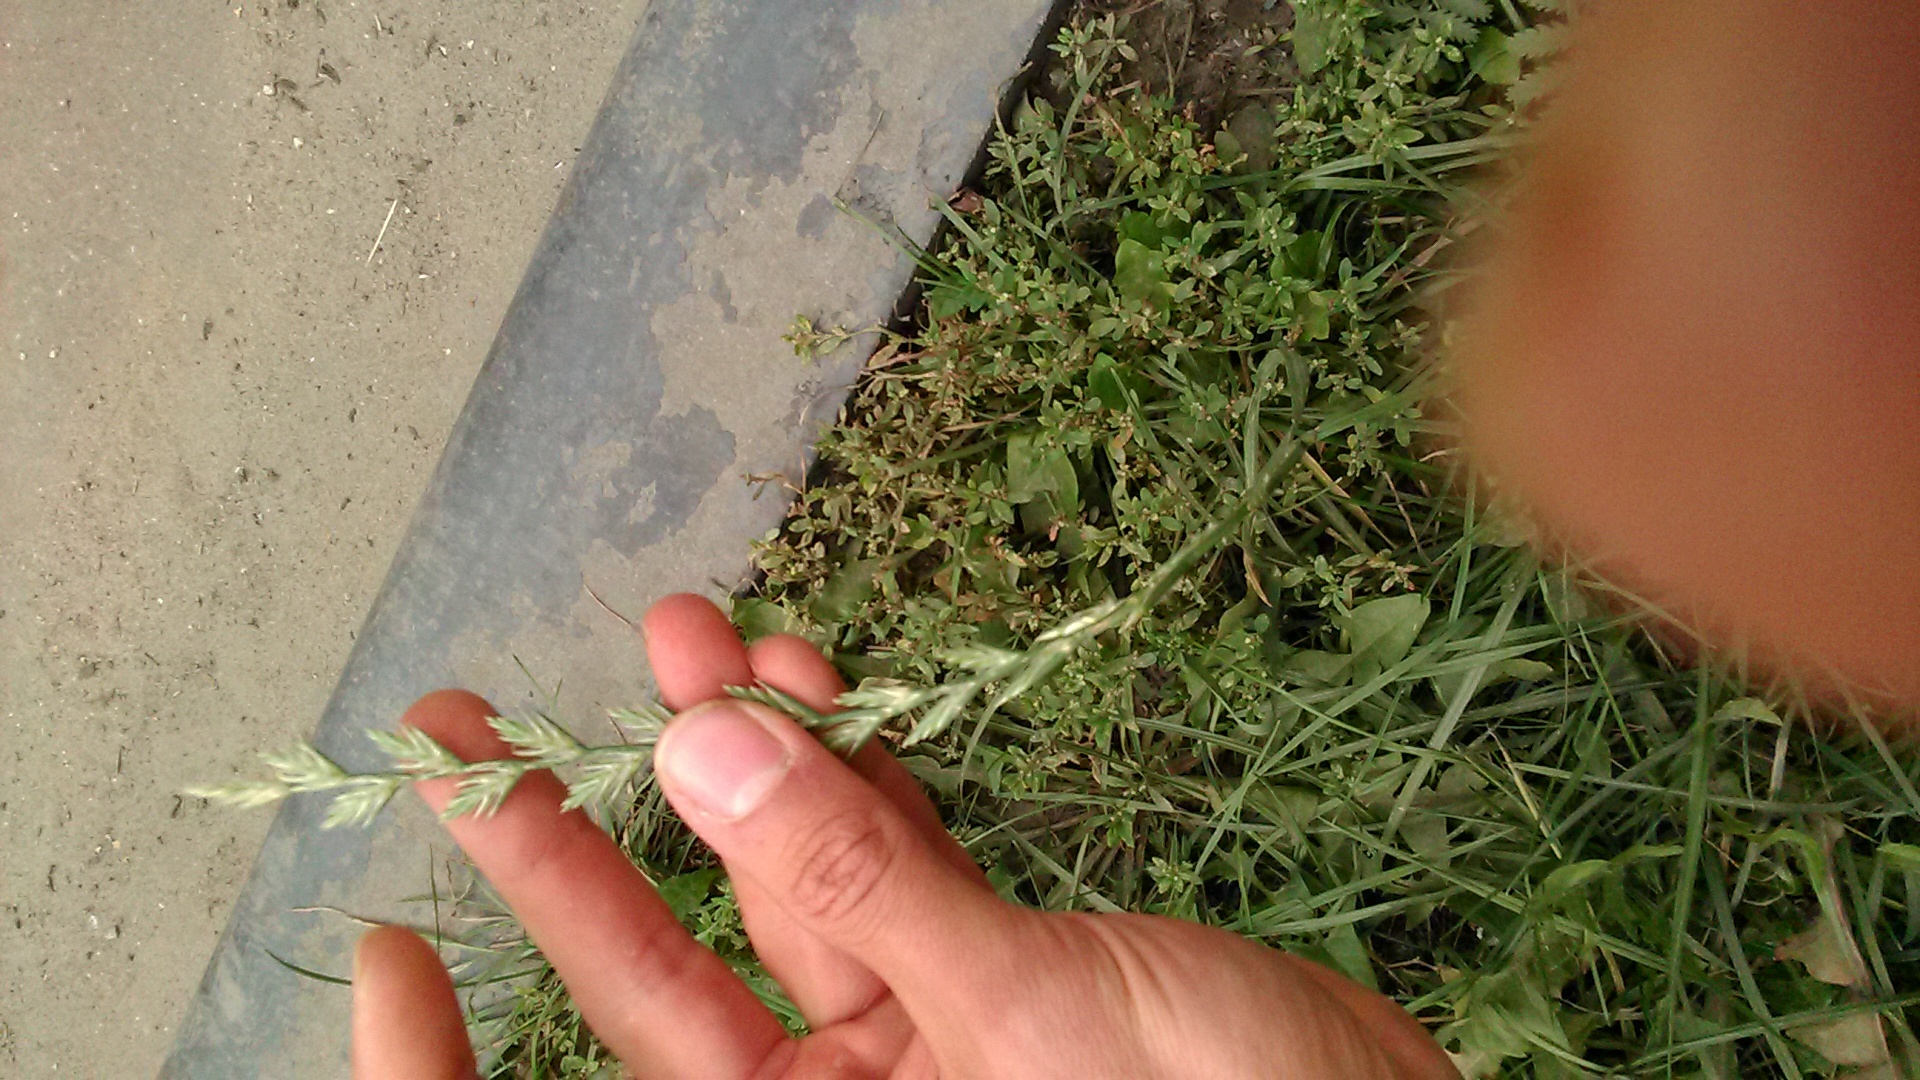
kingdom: Plantae
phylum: Tracheophyta
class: Liliopsida
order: Poales
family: Poaceae
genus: Lolium
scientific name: Lolium perenne
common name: Perennial ryegrass
